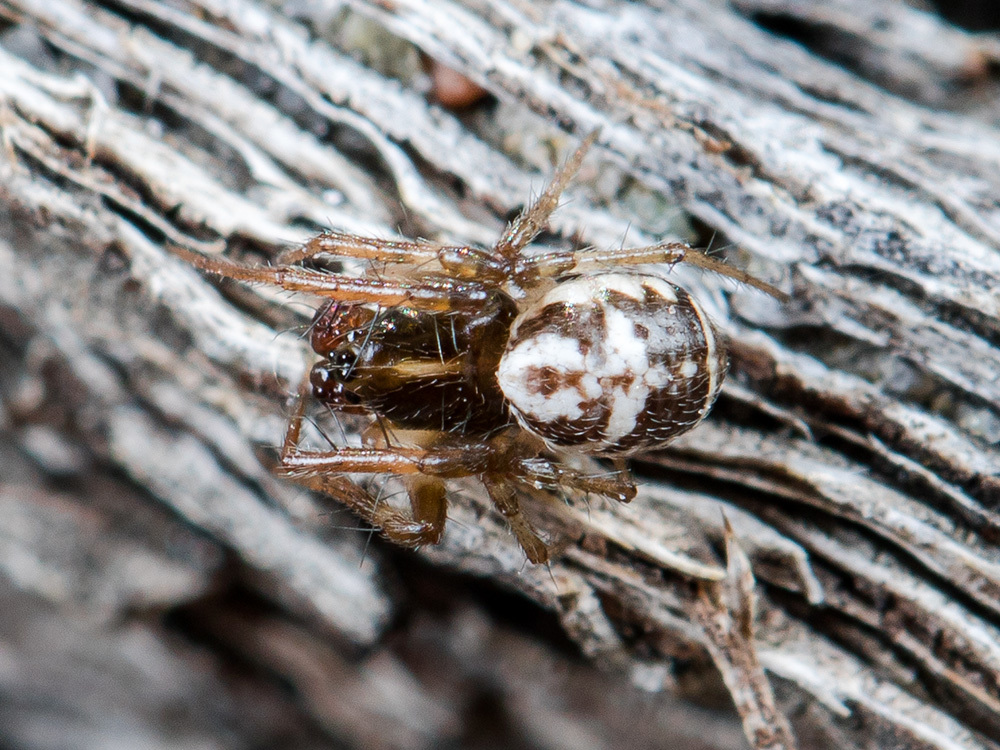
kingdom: Animalia
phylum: Arthropoda
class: Arachnida
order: Araneae
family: Araneidae
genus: Hypsosinga
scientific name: Hypsosinga kazachstanica
